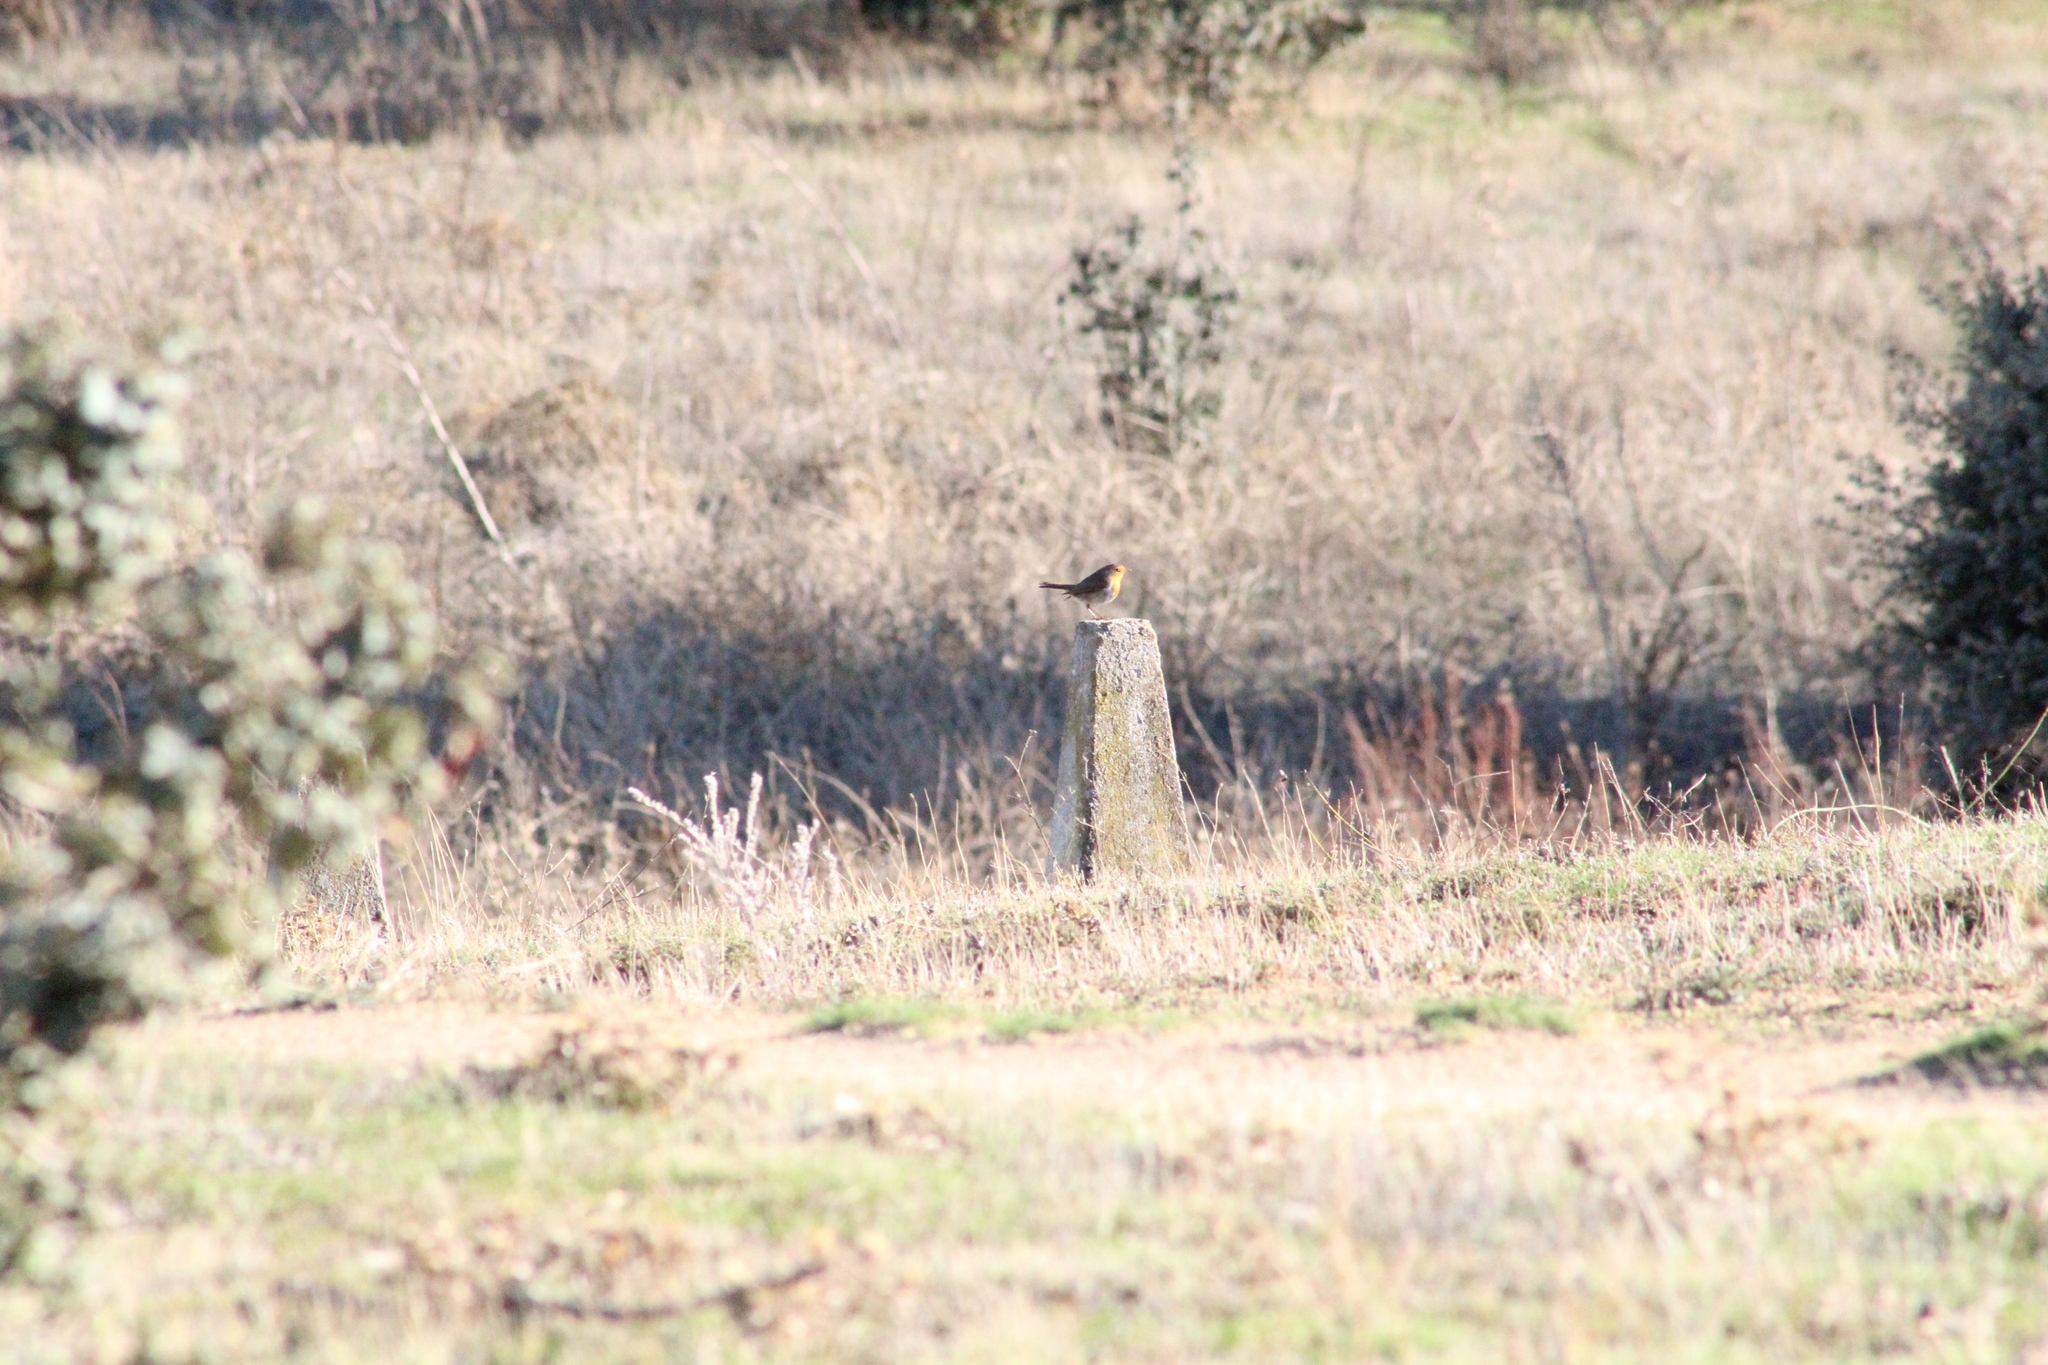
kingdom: Animalia
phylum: Chordata
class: Aves
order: Passeriformes
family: Muscicapidae
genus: Erithacus
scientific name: Erithacus rubecula
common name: European robin
